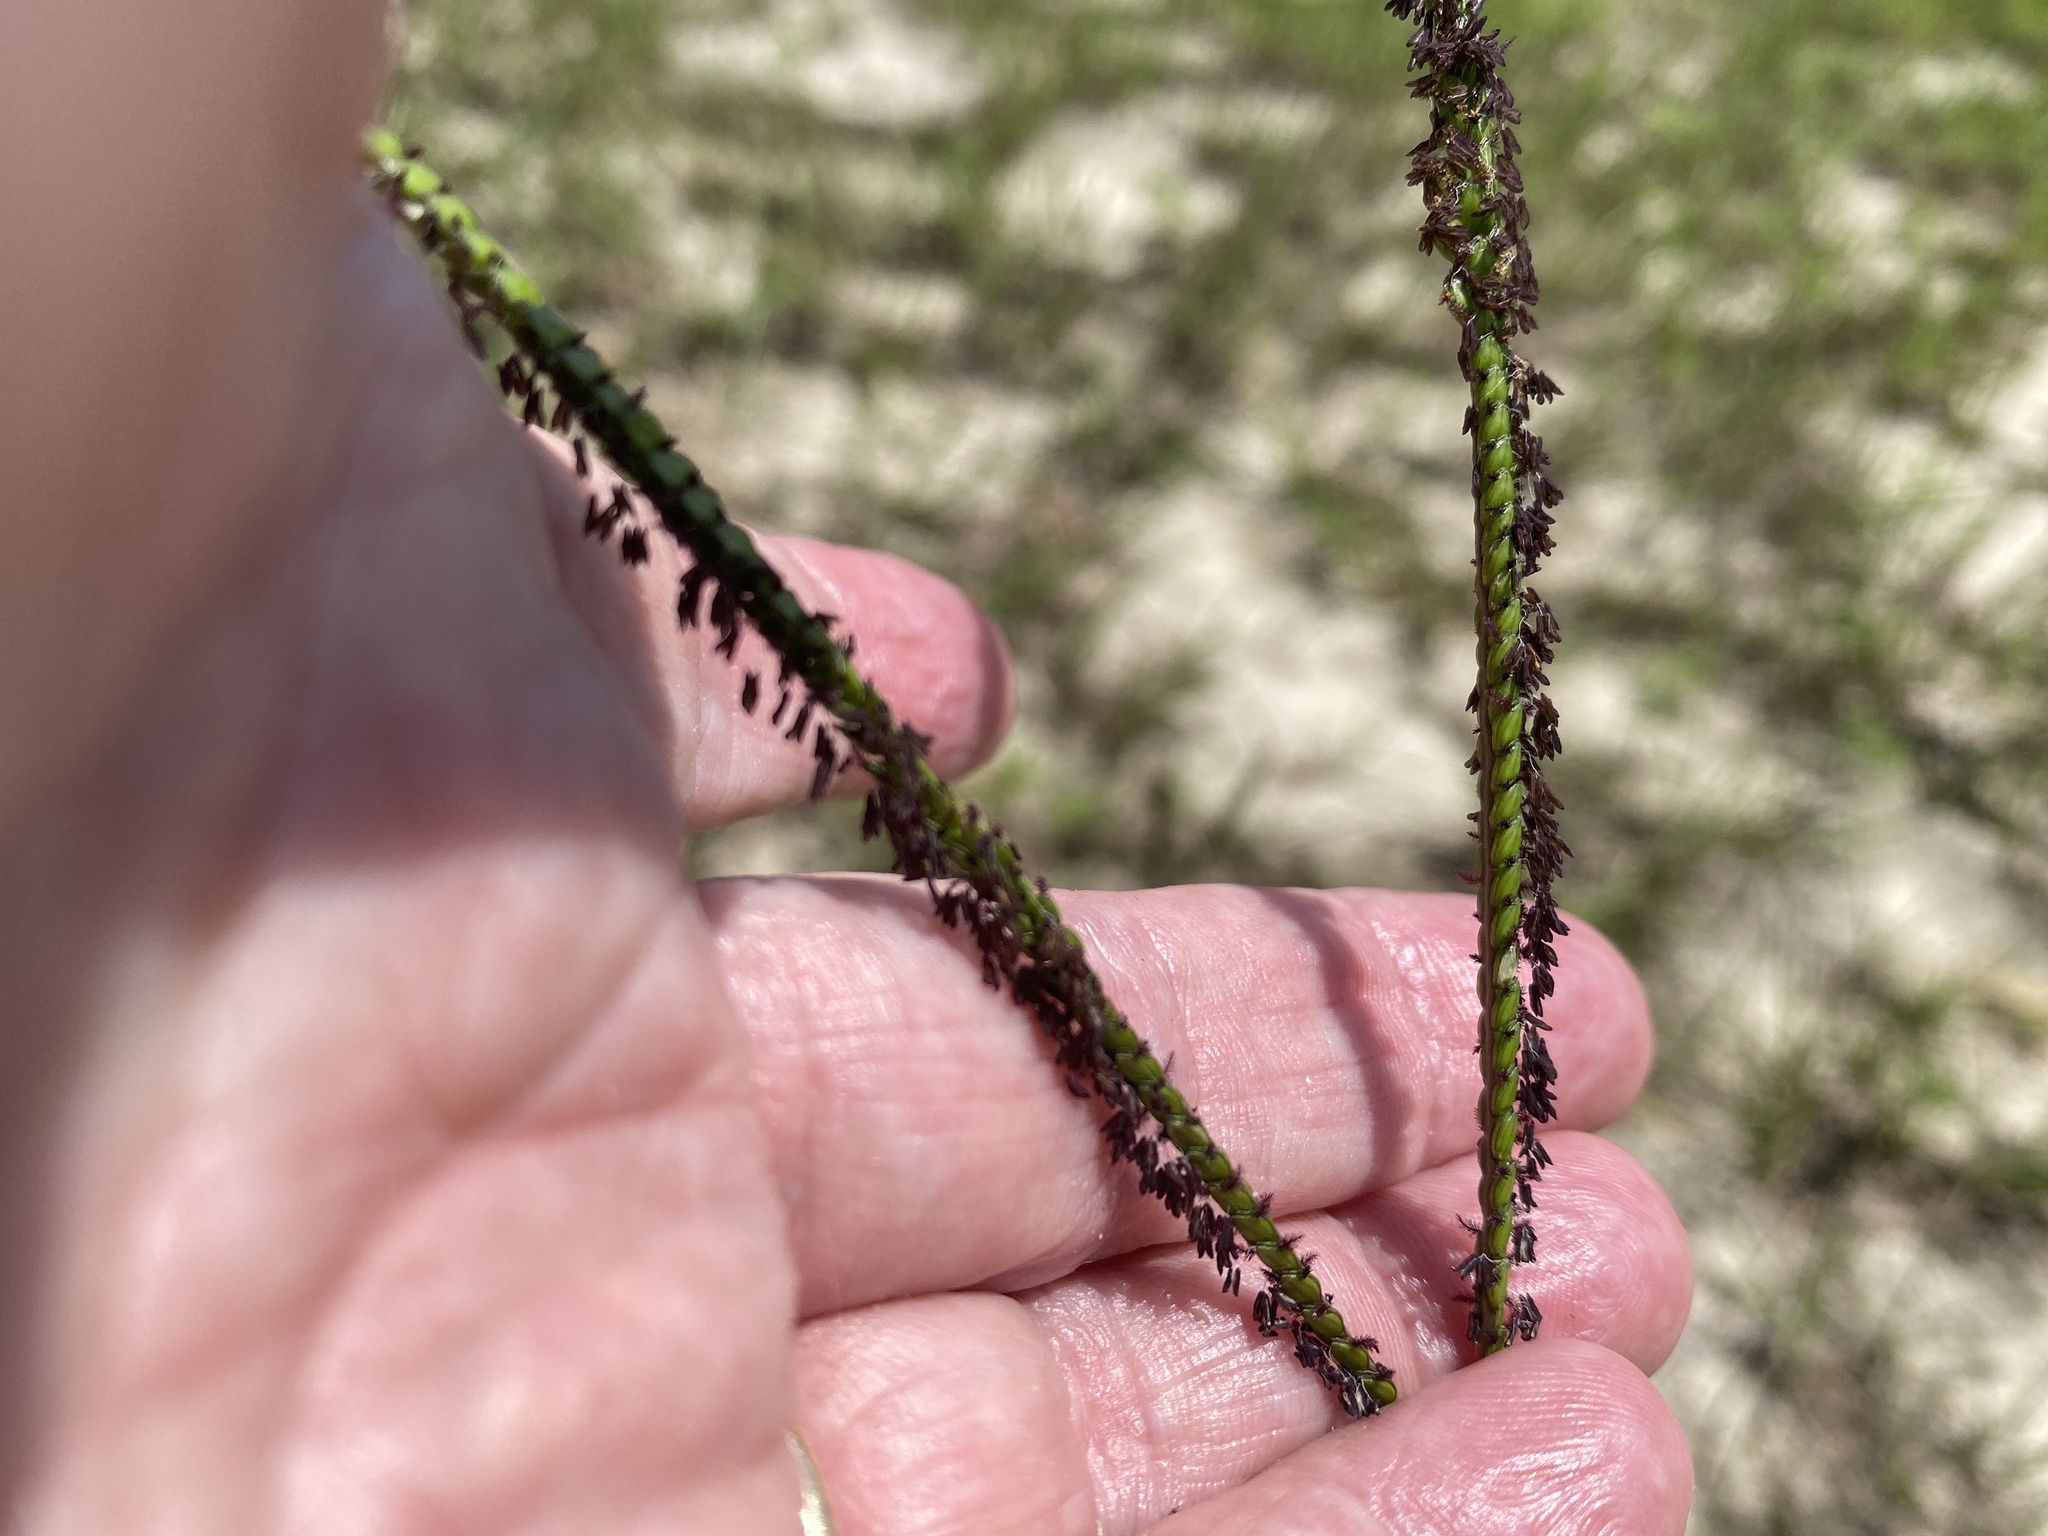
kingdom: Plantae
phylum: Tracheophyta
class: Liliopsida
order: Poales
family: Poaceae
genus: Paspalum
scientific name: Paspalum notatum
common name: Bahiagrass
